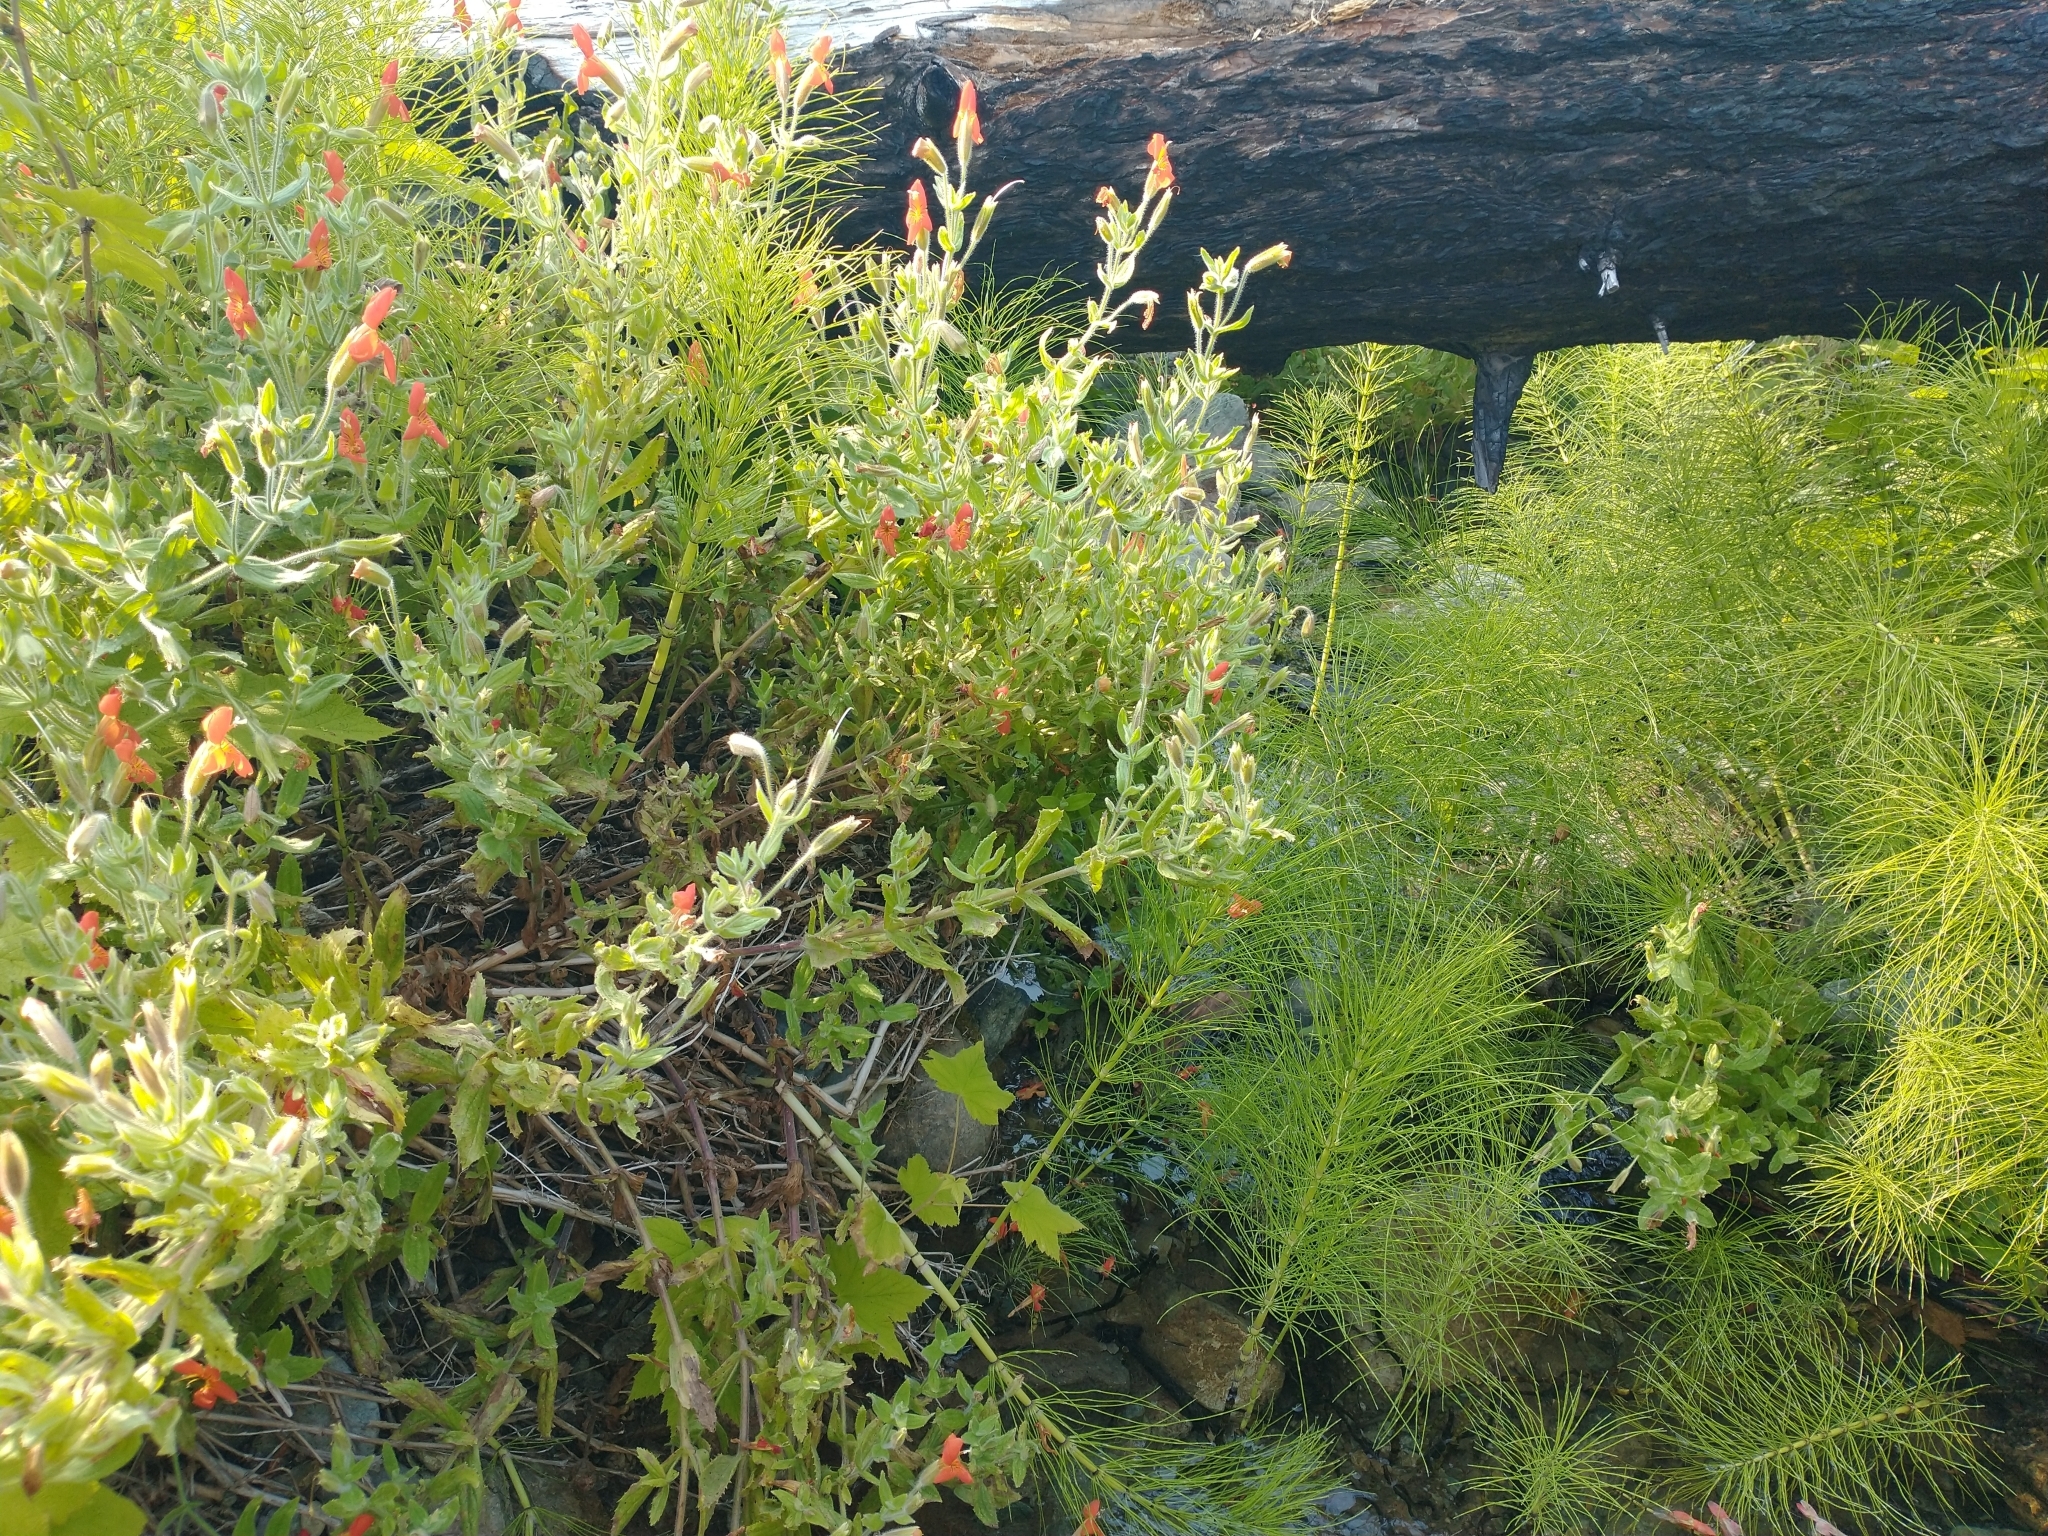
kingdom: Plantae
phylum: Tracheophyta
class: Polypodiopsida
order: Equisetales
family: Equisetaceae
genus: Equisetum
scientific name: Equisetum telmateia
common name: Great horsetail
